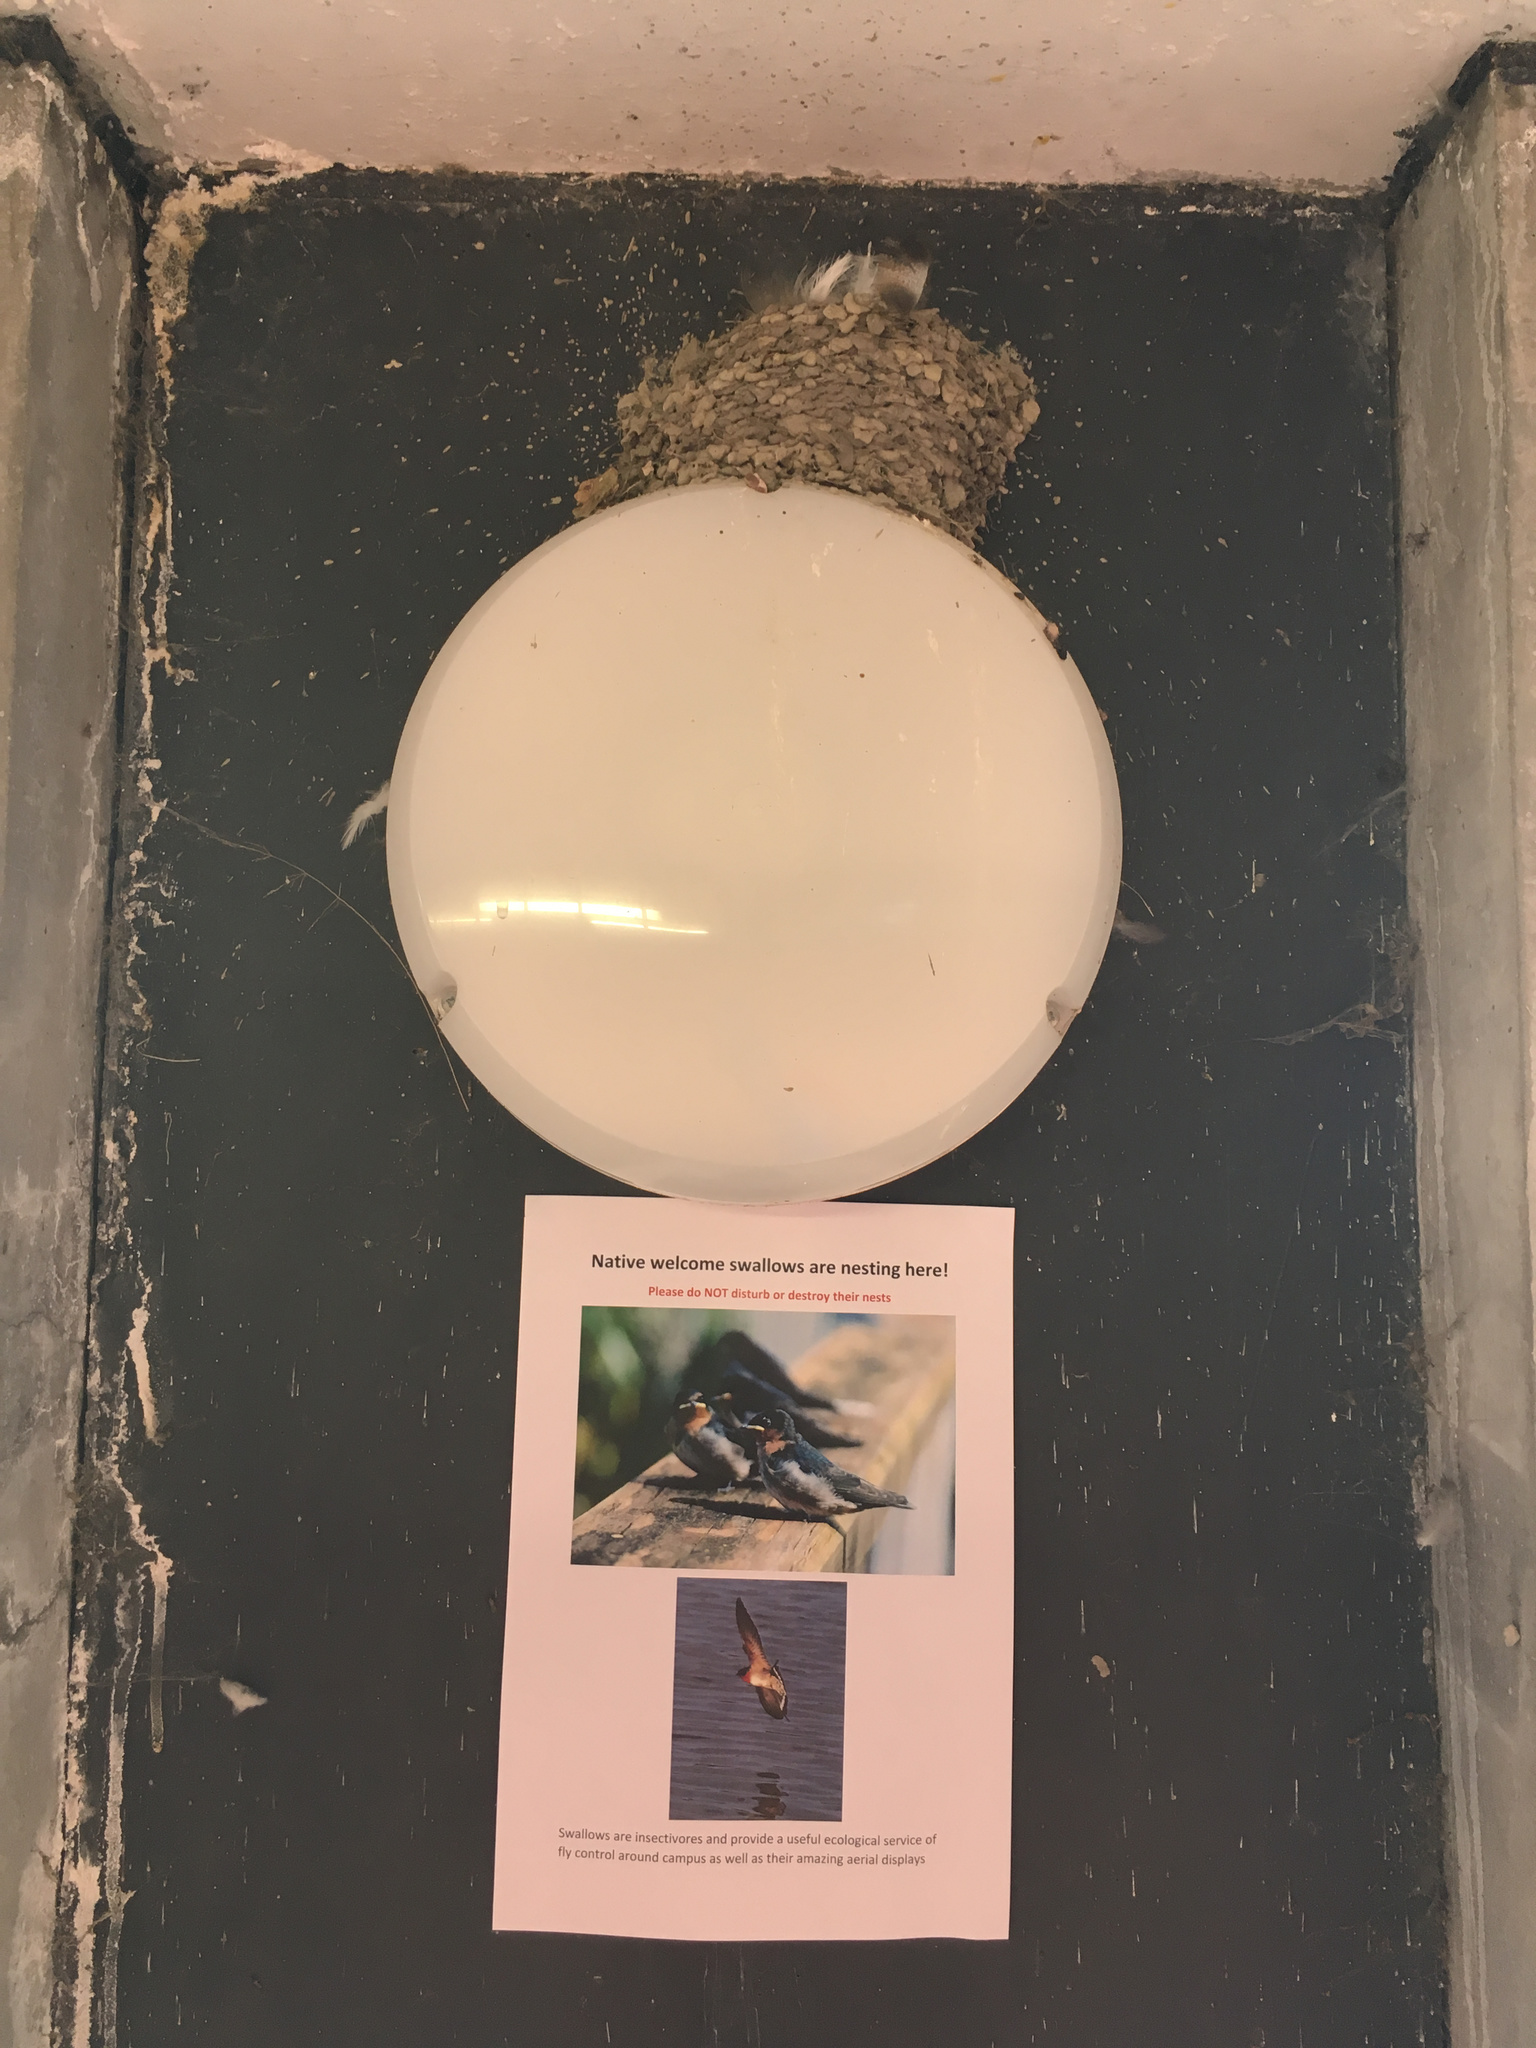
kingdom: Animalia
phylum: Chordata
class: Aves
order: Passeriformes
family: Hirundinidae
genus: Hirundo
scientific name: Hirundo neoxena
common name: Welcome swallow
